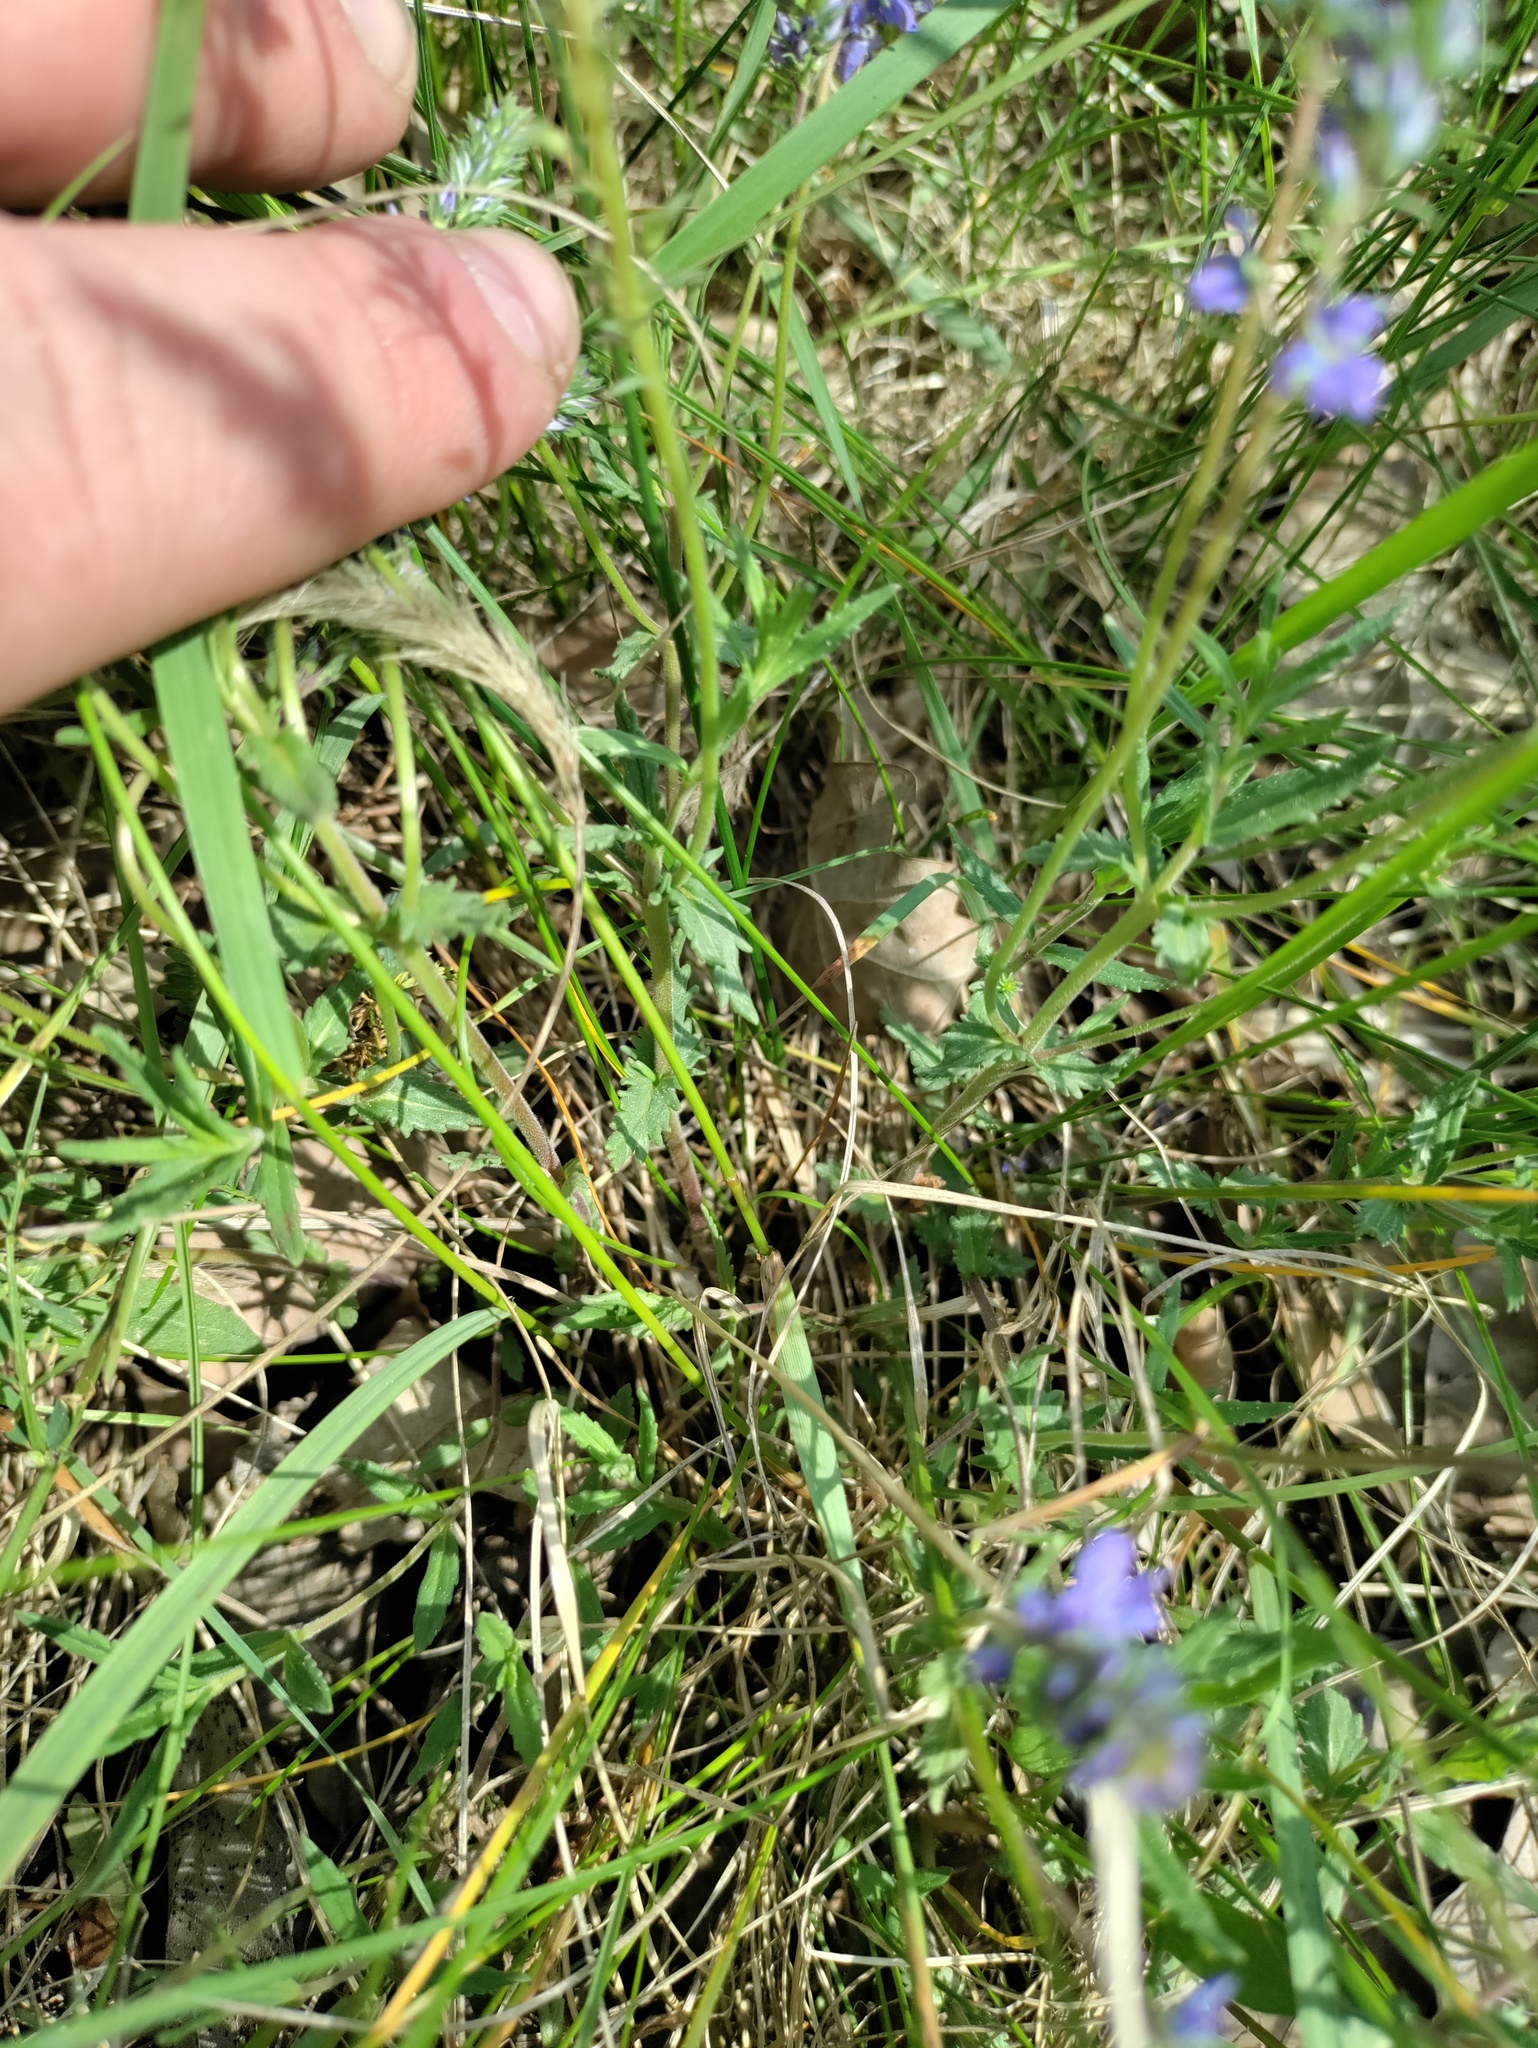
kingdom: Plantae
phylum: Tracheophyta
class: Magnoliopsida
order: Lamiales
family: Plantaginaceae
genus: Veronica
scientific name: Veronica prostrata
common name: Prostrate speedwell
